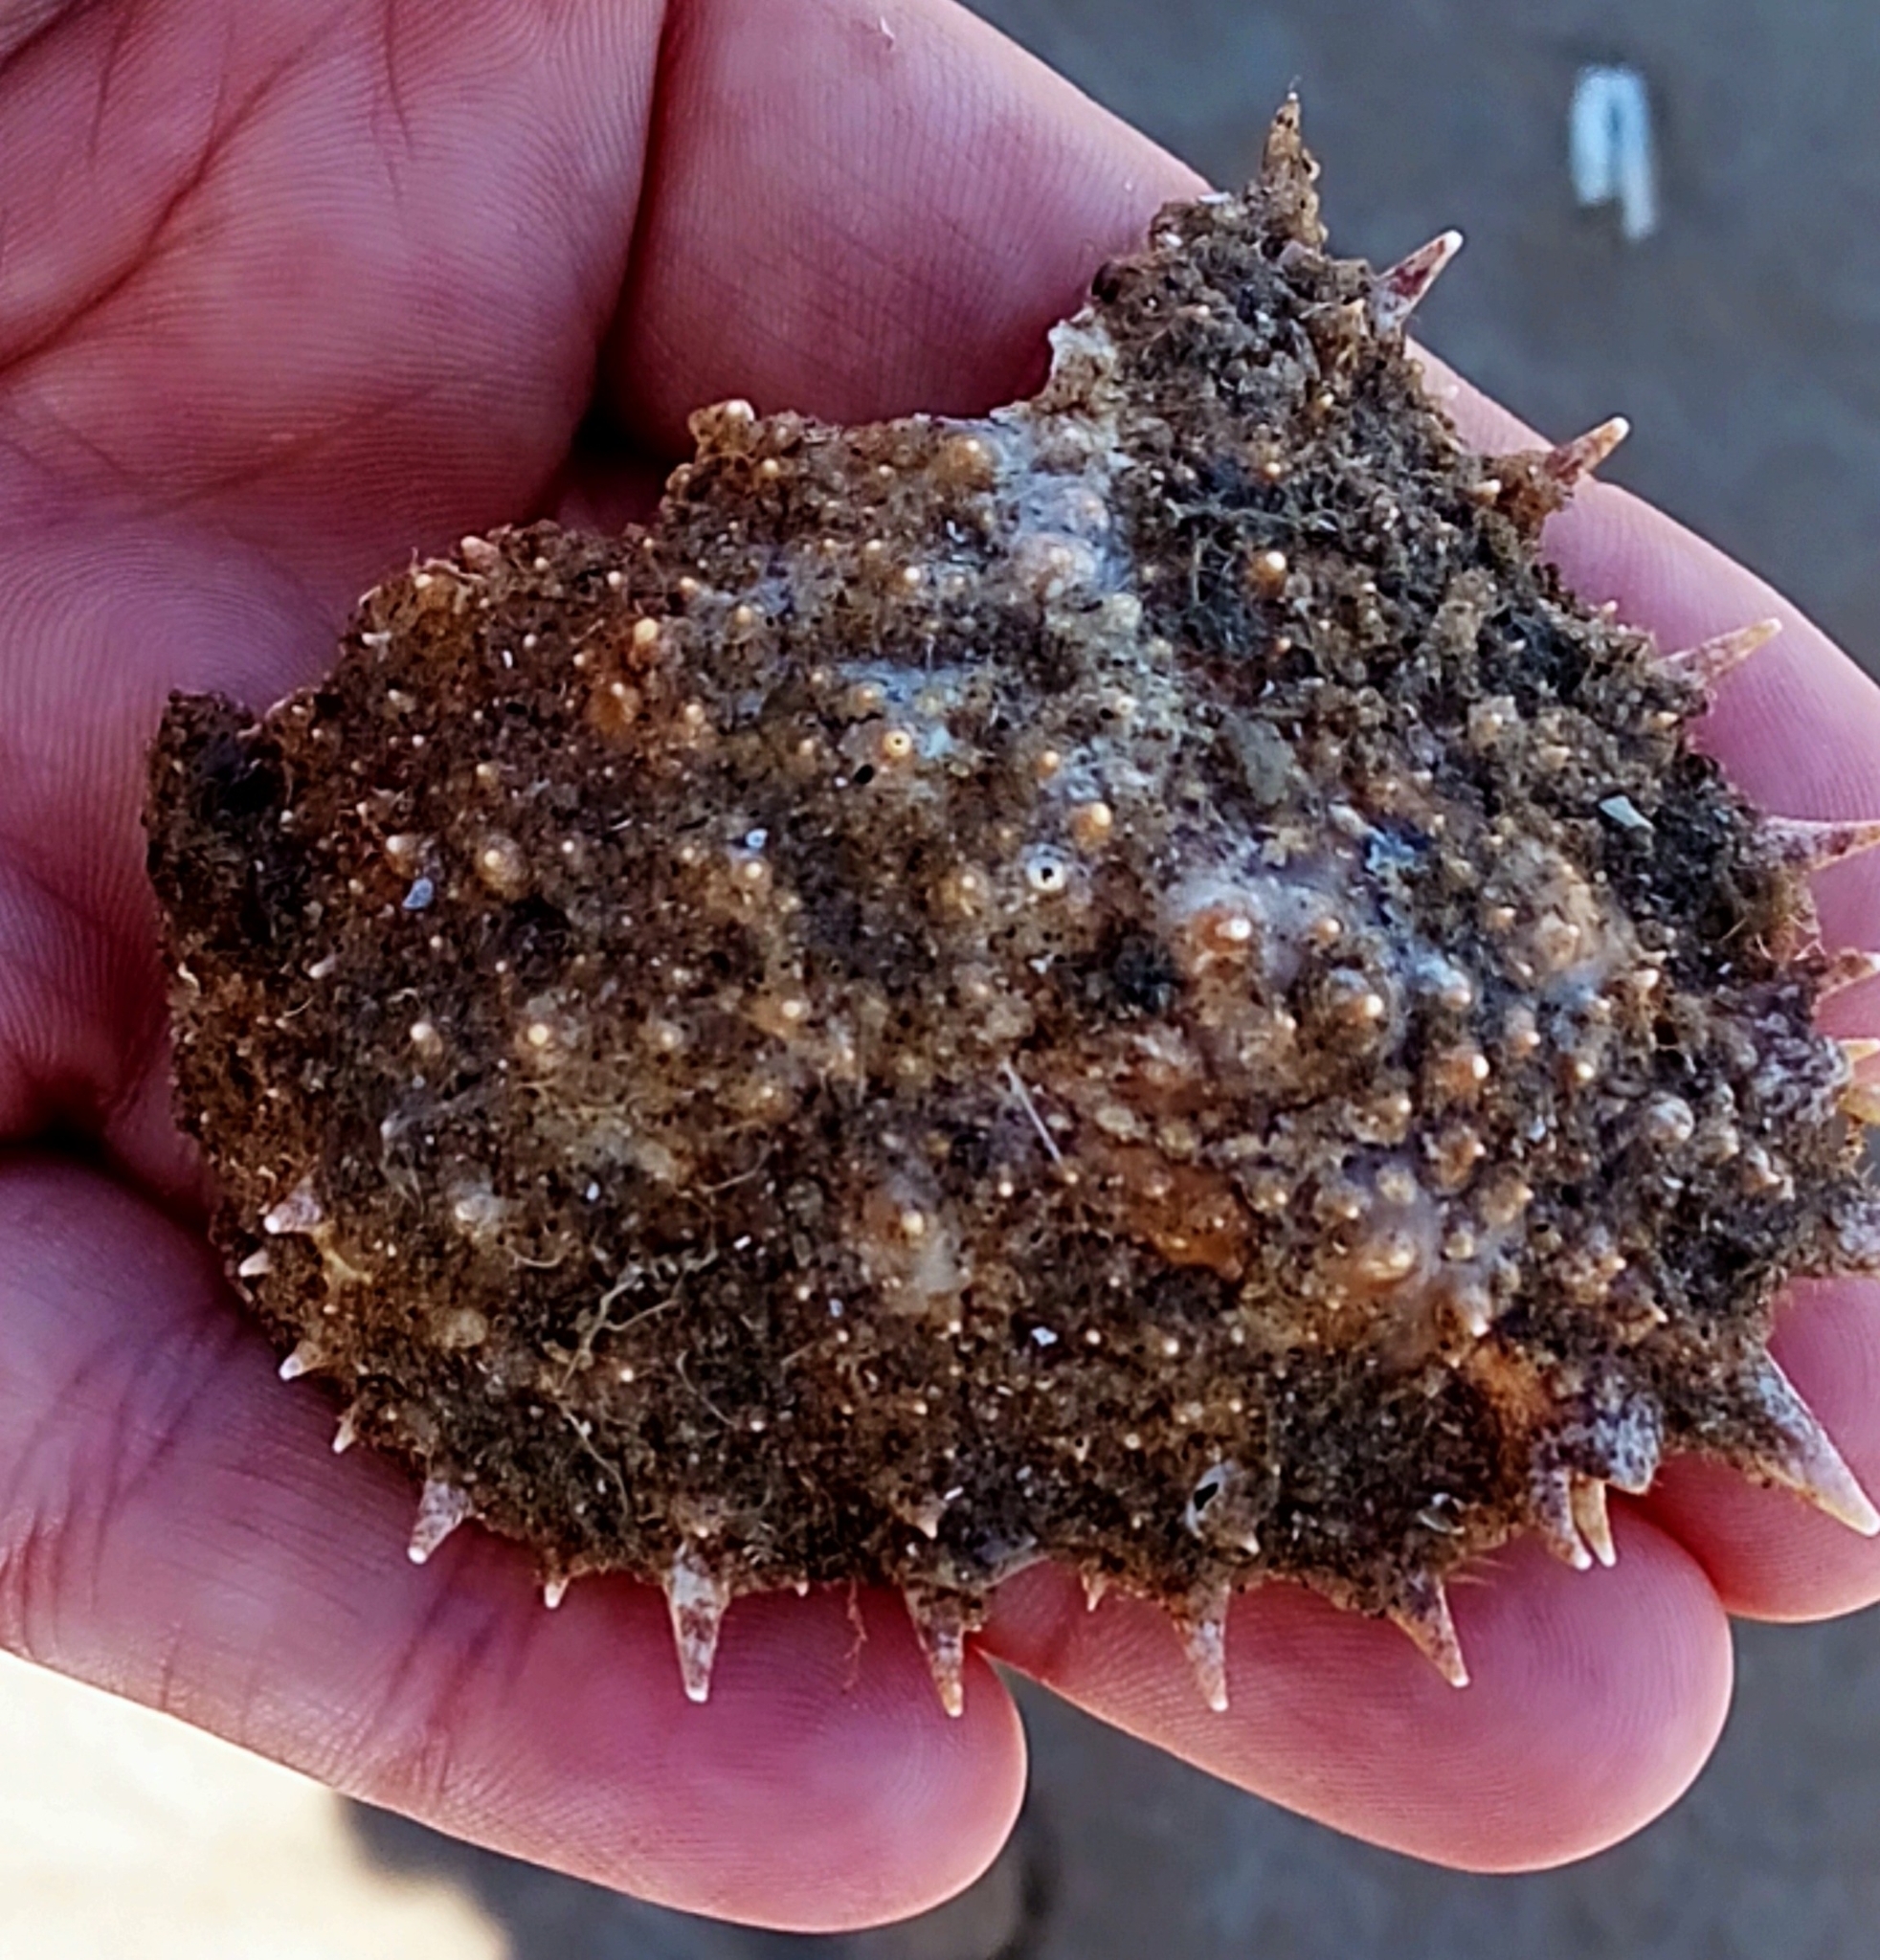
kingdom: Animalia
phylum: Arthropoda
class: Malacostraca
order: Decapoda
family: Majidae
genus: Maja
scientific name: Maja brachydactyla
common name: Common spider crab
